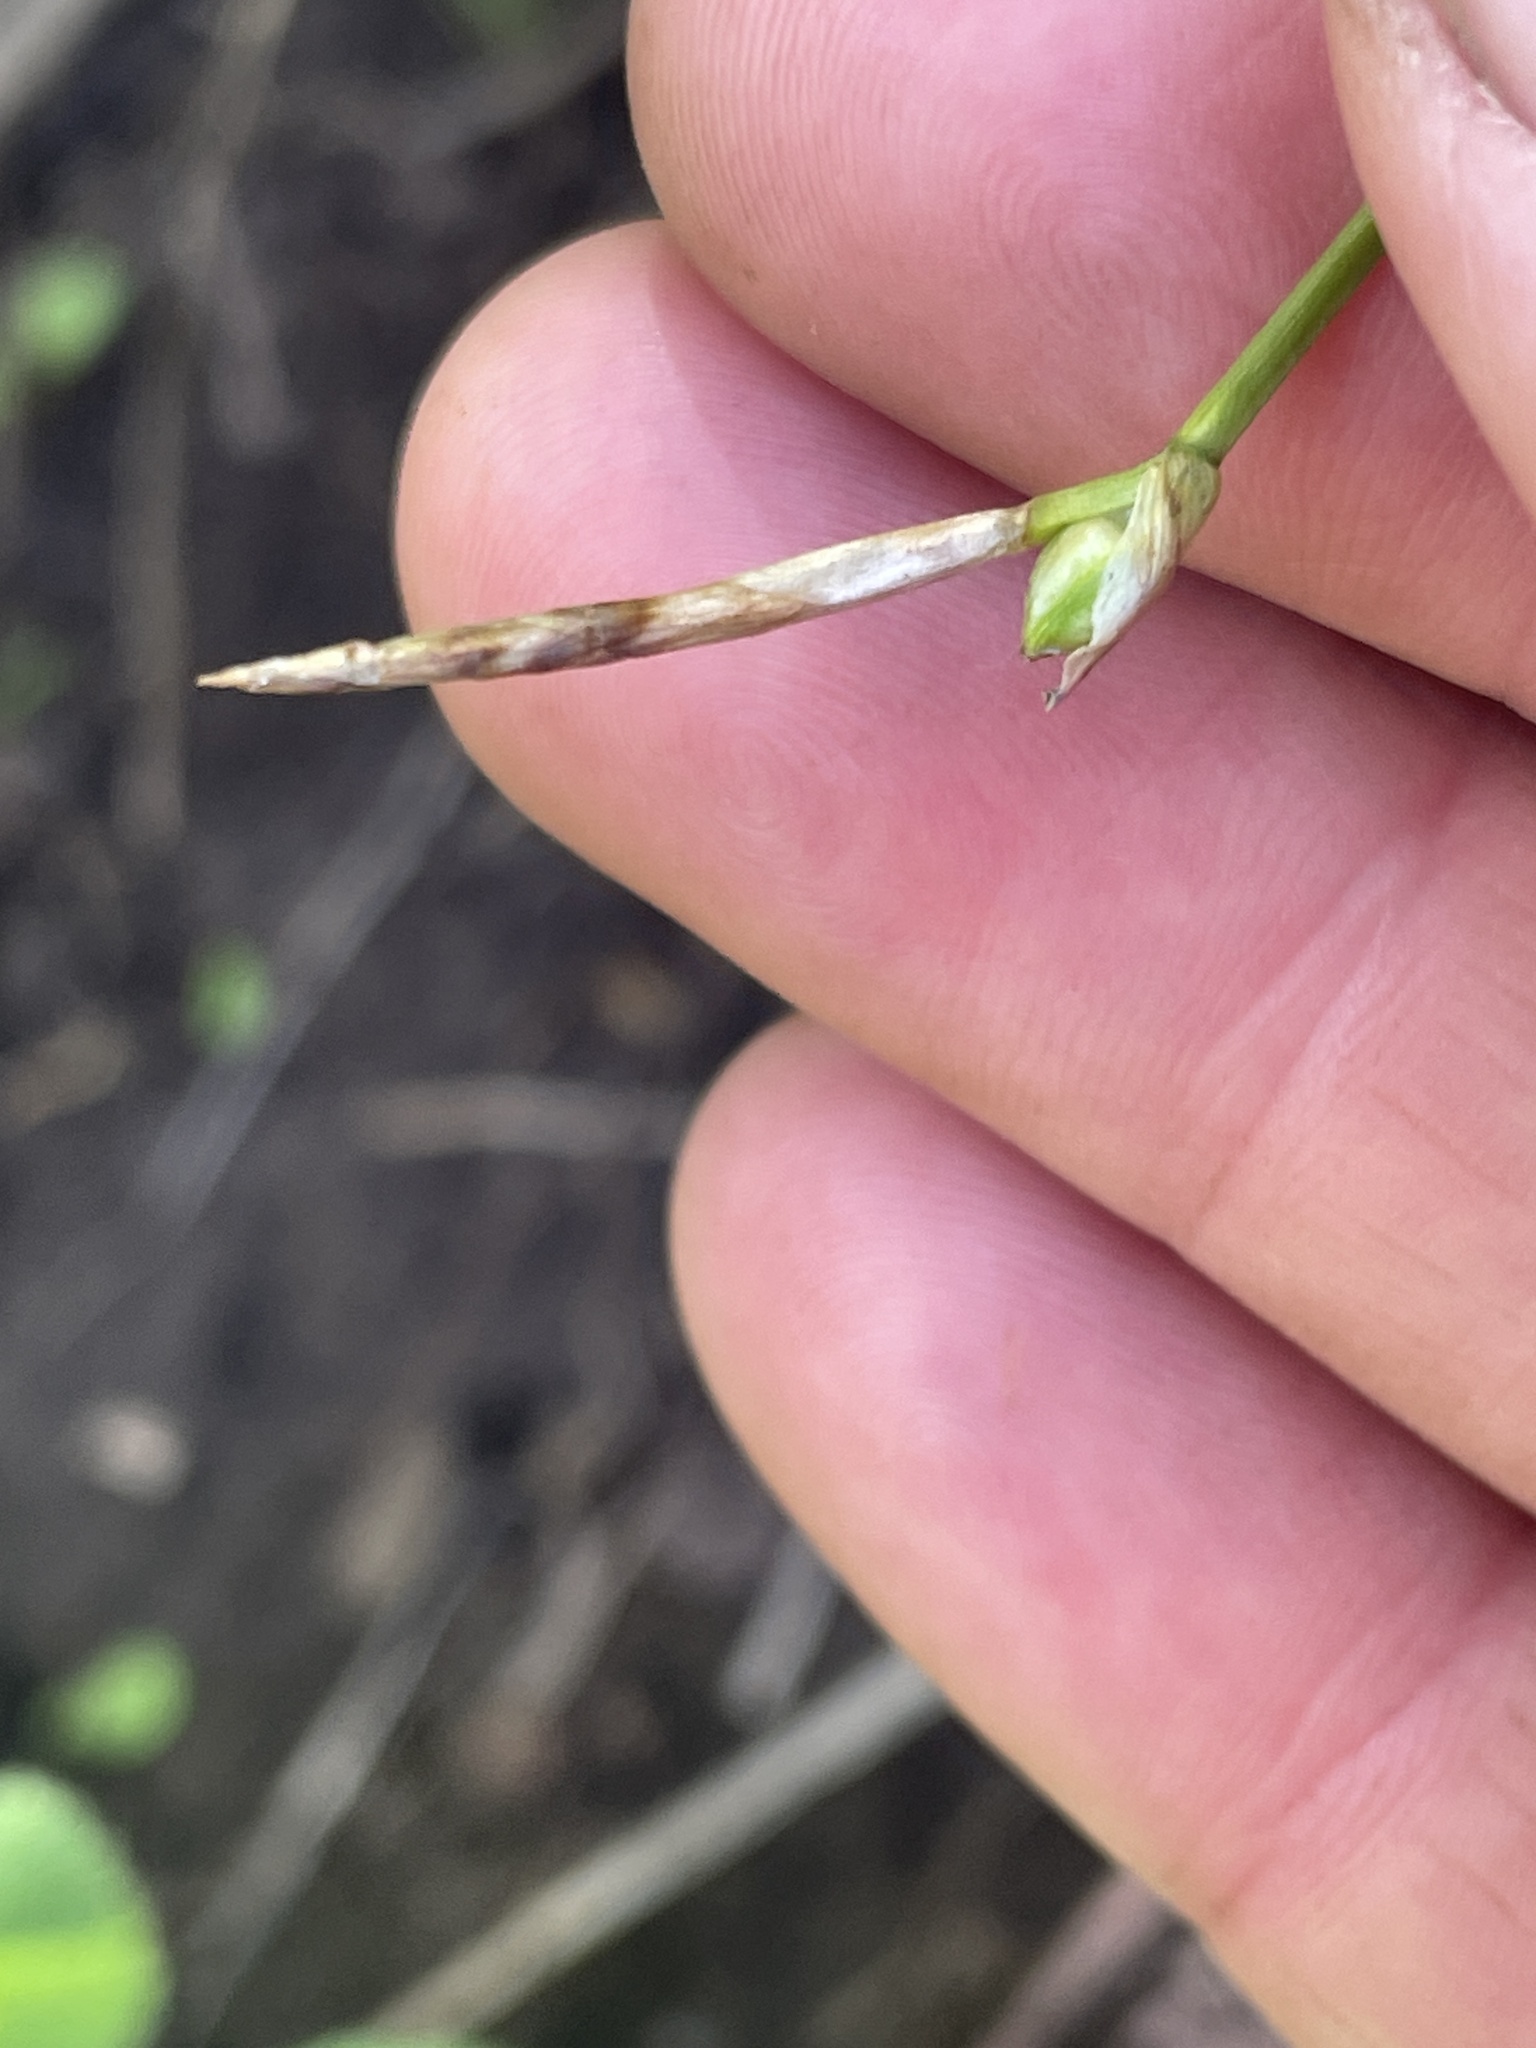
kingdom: Plantae
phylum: Tracheophyta
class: Liliopsida
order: Poales
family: Cyperaceae
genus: Carex
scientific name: Carex geyeri
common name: Elk sedge
